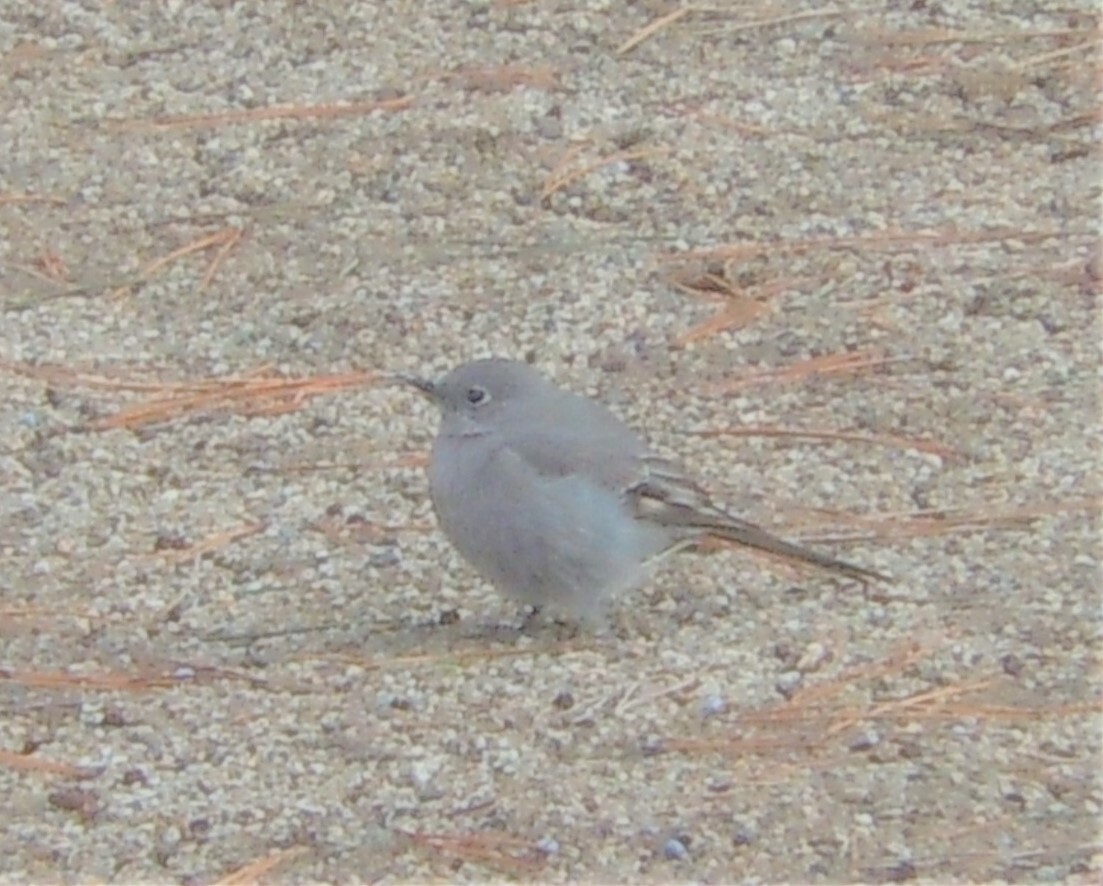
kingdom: Animalia
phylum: Chordata
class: Aves
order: Passeriformes
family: Turdidae
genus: Myadestes
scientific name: Myadestes townsendi
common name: Townsend's solitaire
